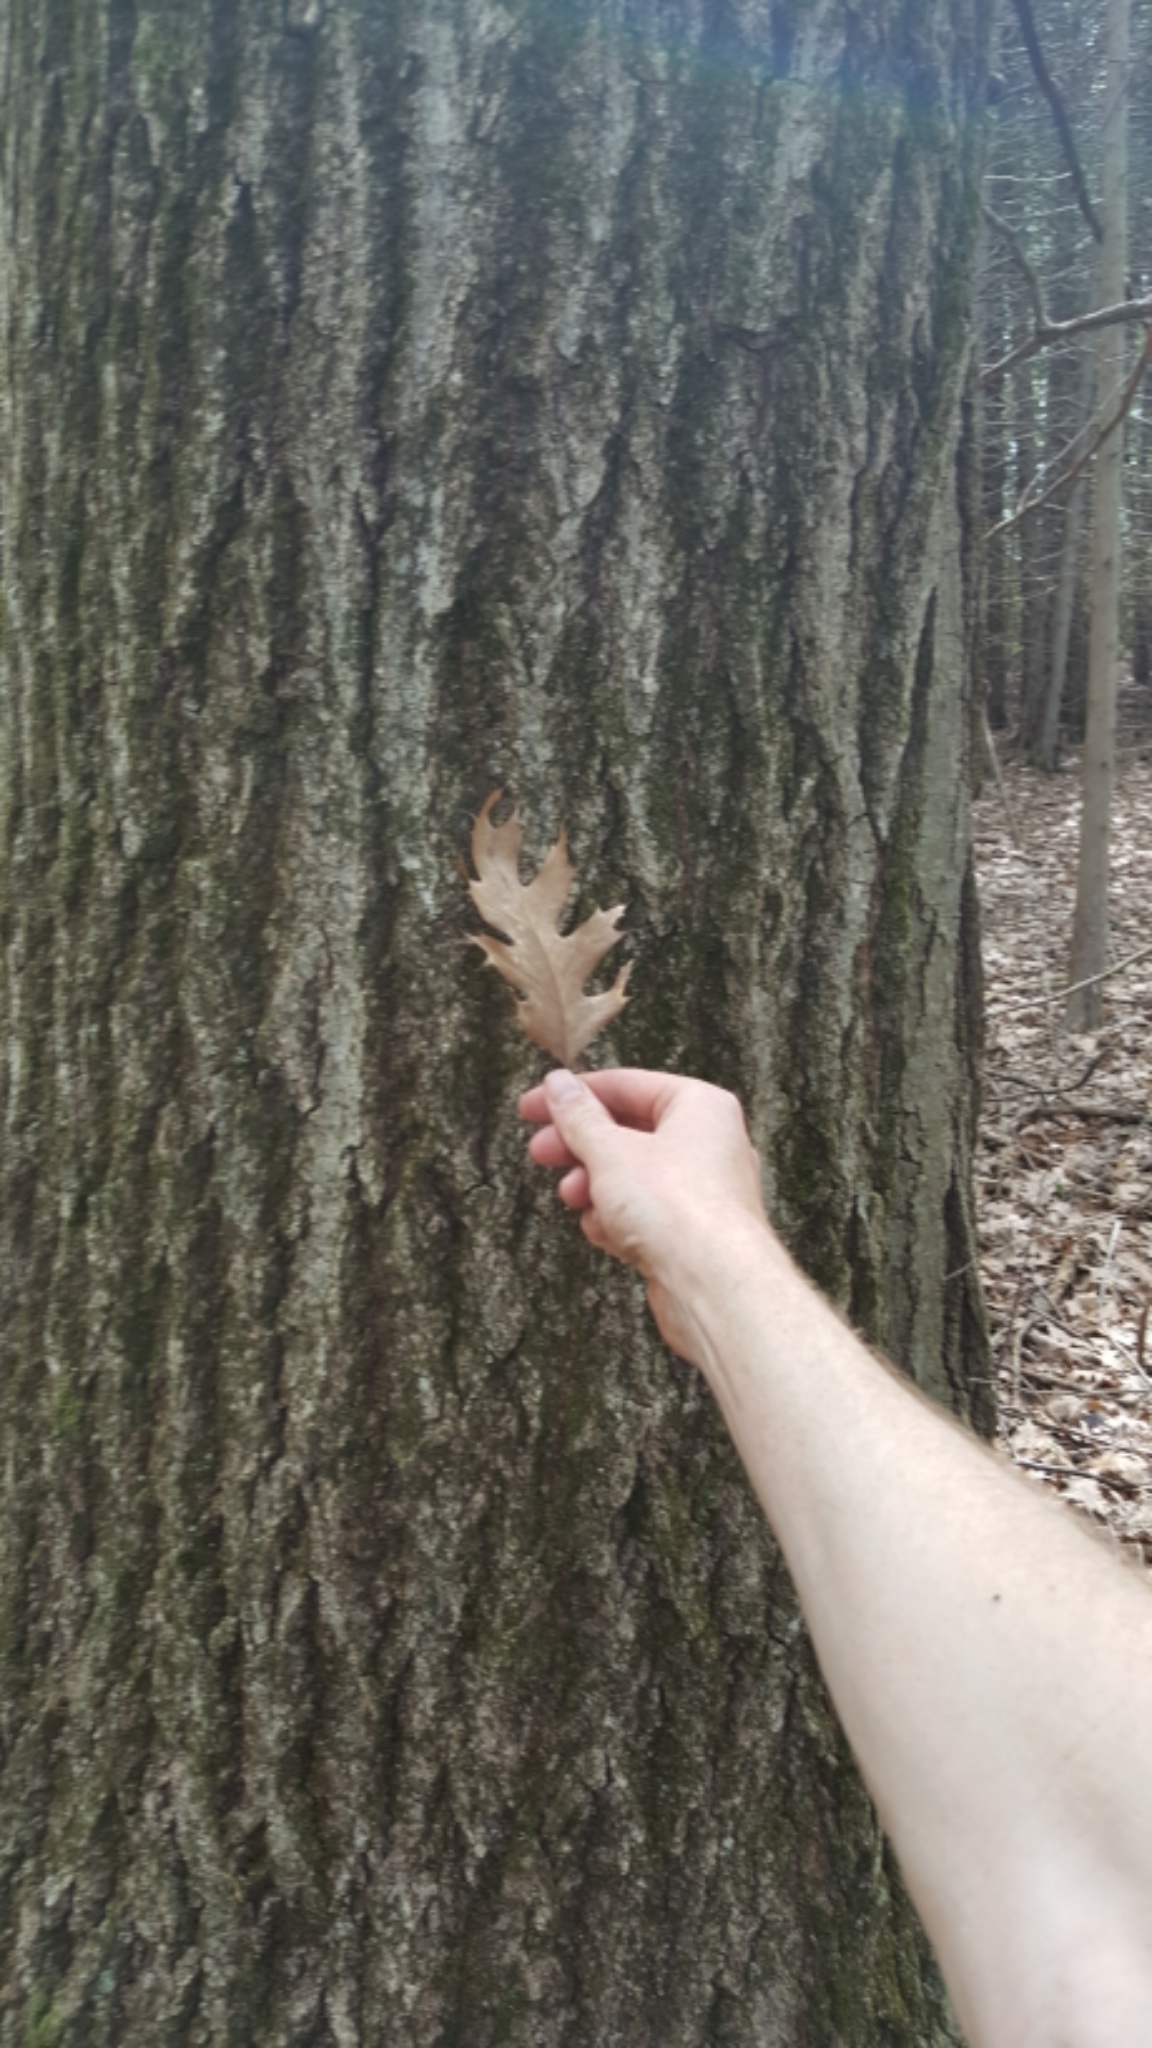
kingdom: Plantae
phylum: Tracheophyta
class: Magnoliopsida
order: Fagales
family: Fagaceae
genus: Quercus
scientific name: Quercus rubra
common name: Red oak
